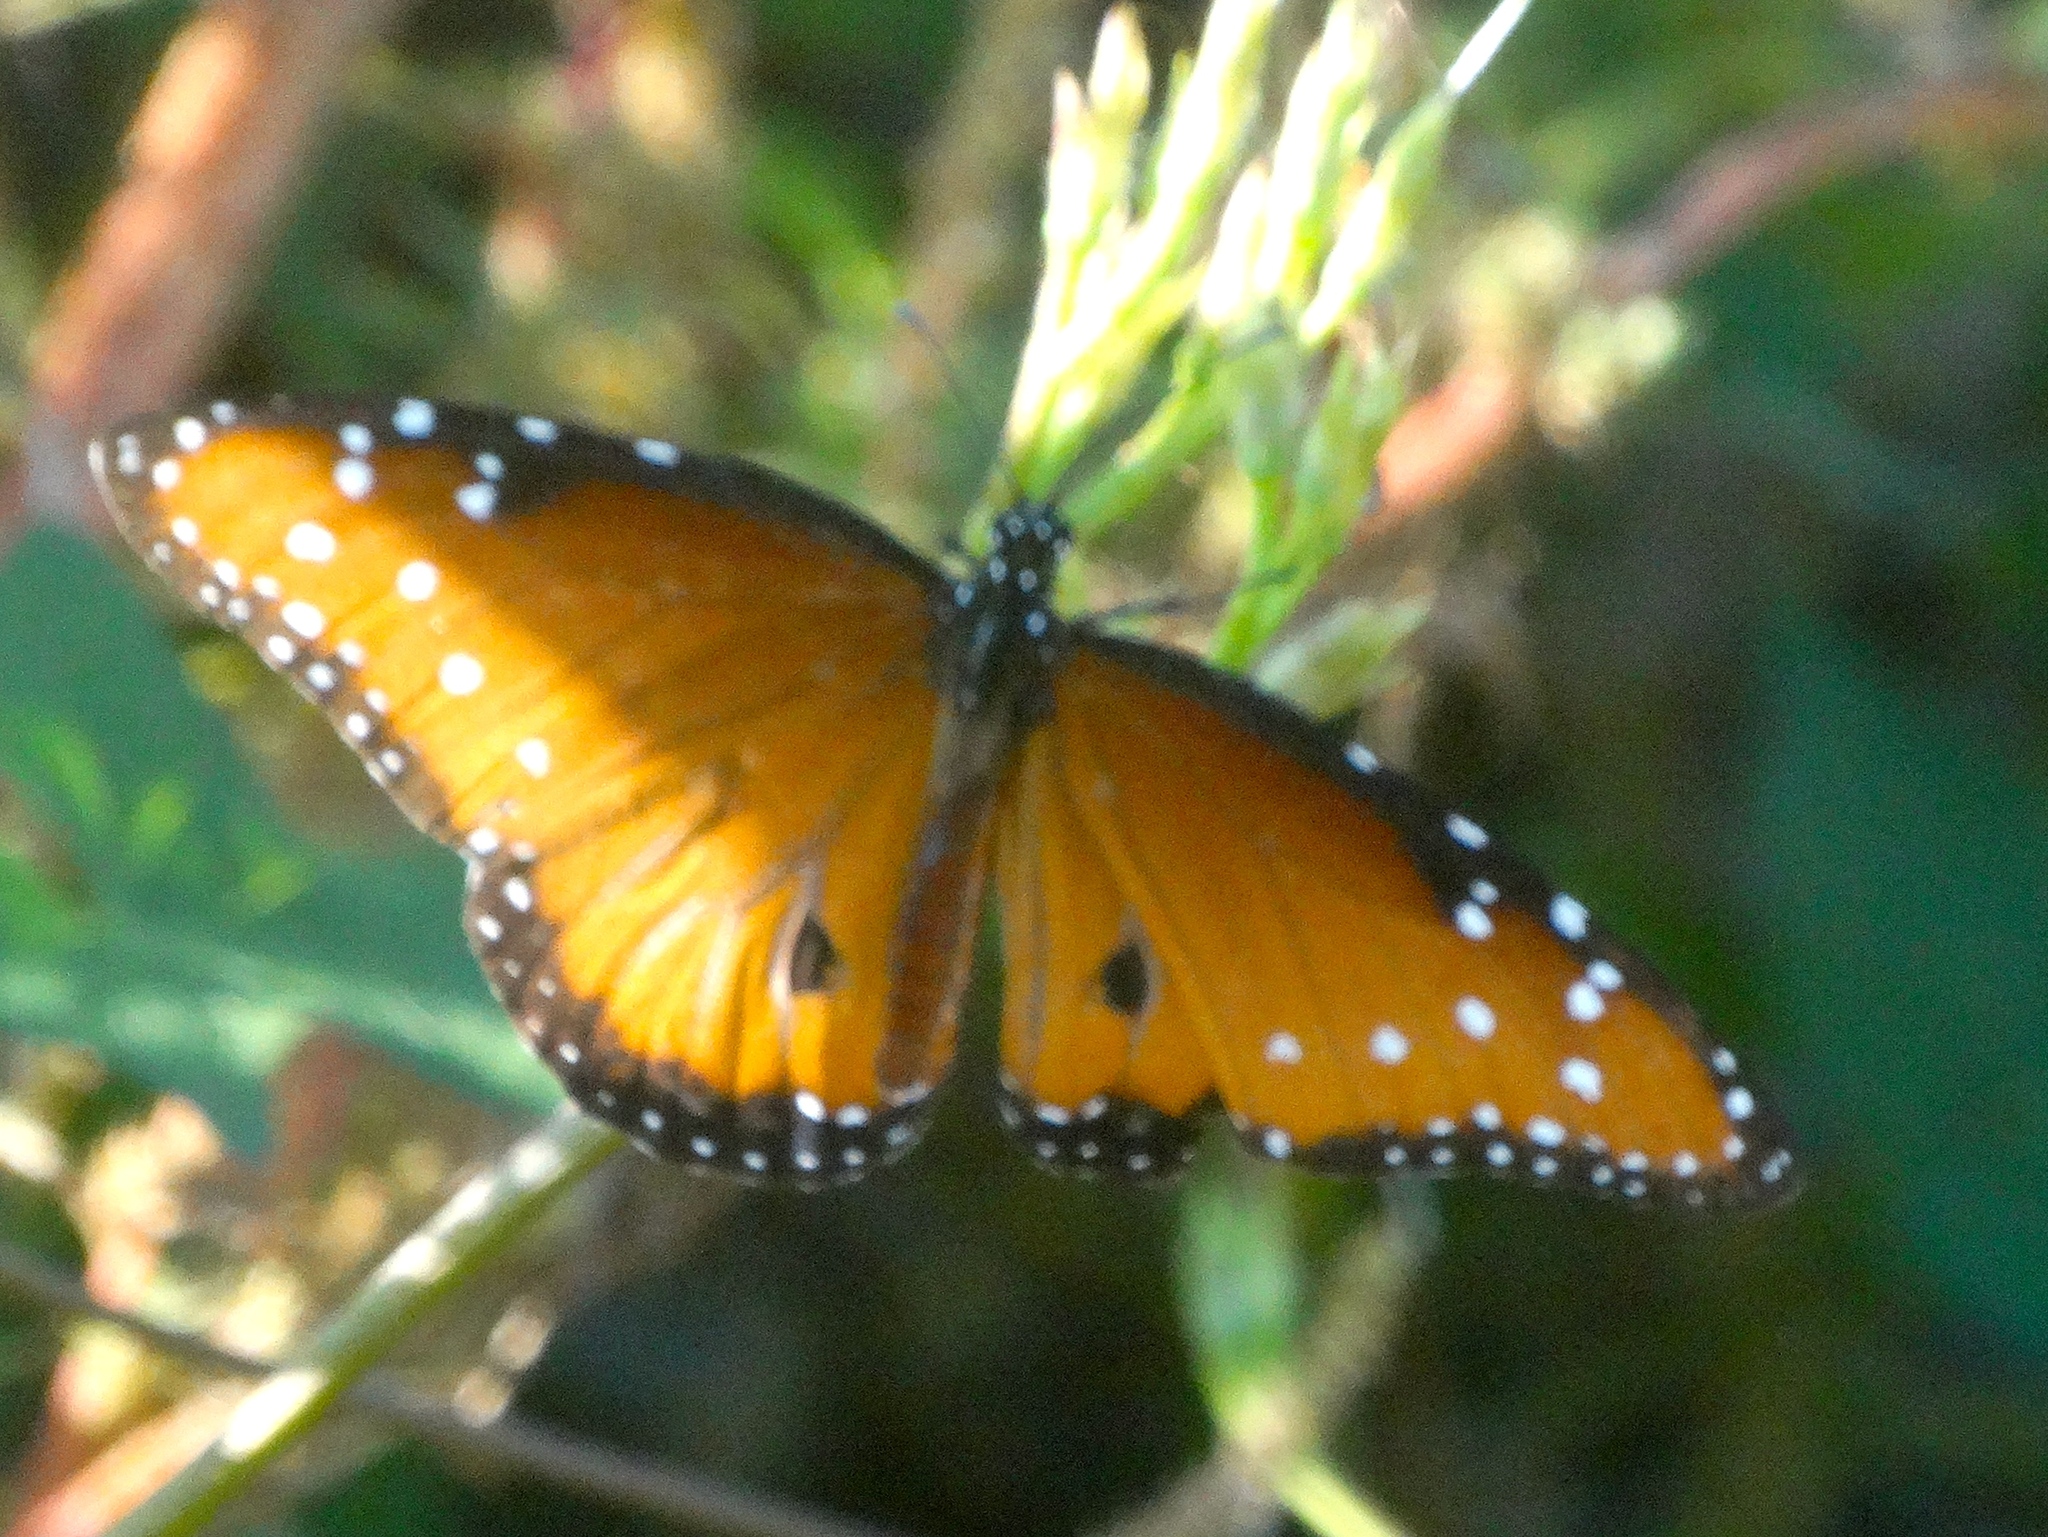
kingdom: Animalia
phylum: Arthropoda
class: Insecta
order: Lepidoptera
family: Nymphalidae
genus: Danaus
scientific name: Danaus gilippus
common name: Queen
